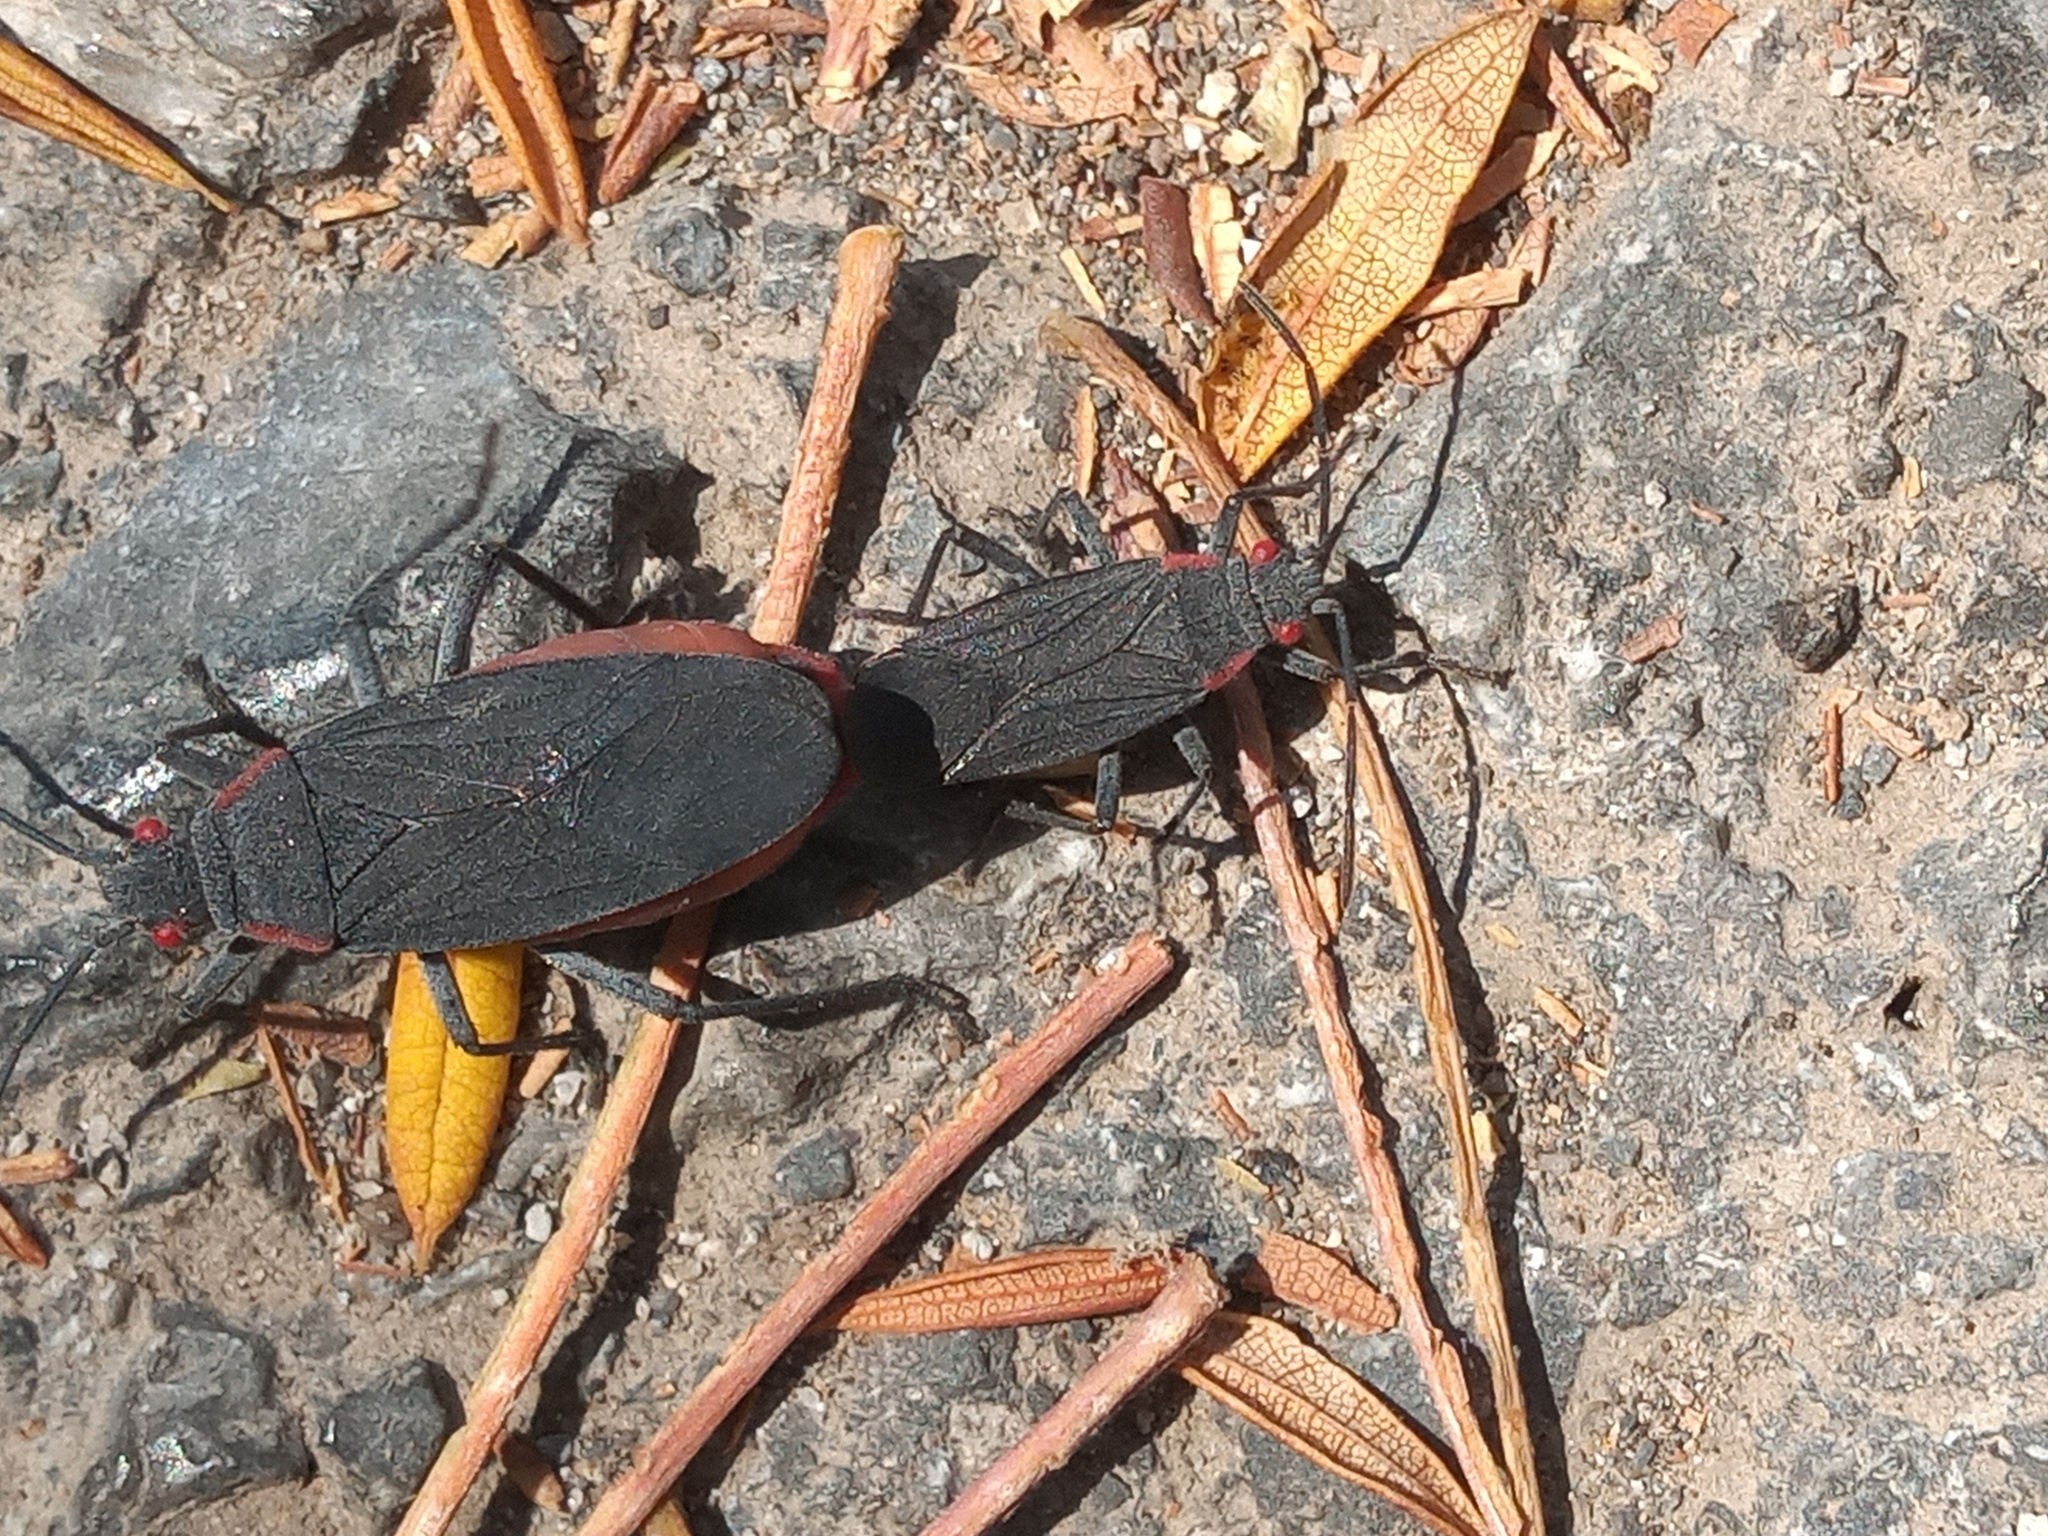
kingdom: Animalia
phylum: Arthropoda
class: Insecta
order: Hemiptera
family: Rhopalidae
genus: Jadera
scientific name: Jadera haematoloma
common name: Red-shouldered bug
